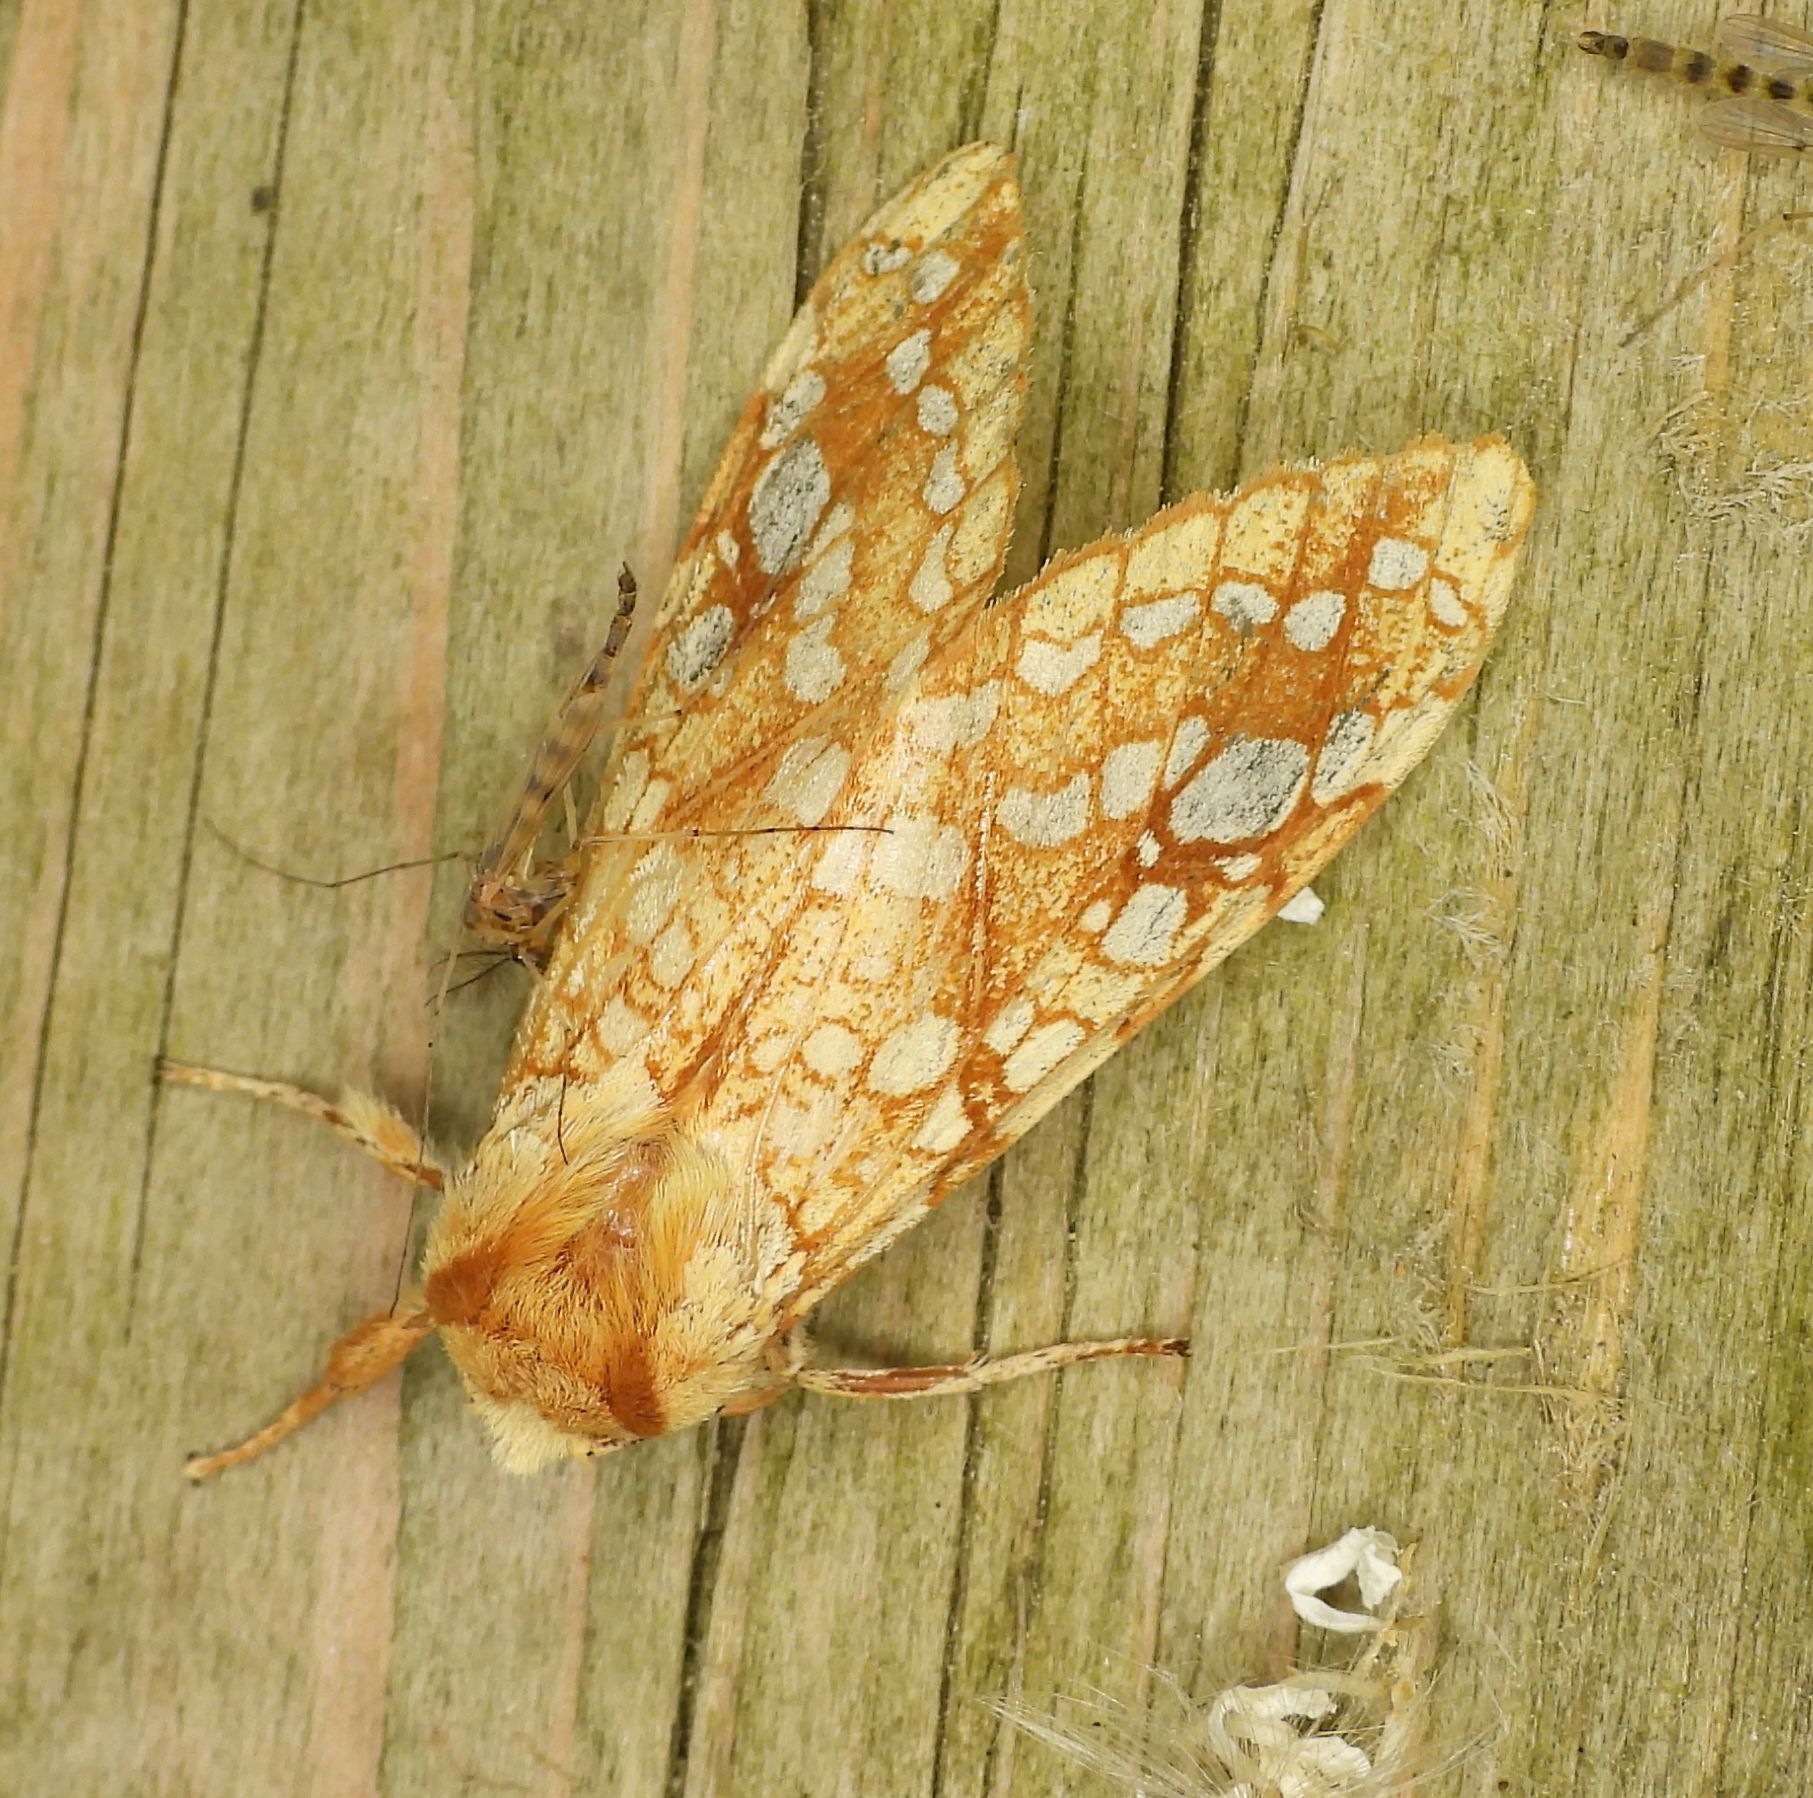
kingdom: Animalia
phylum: Arthropoda
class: Insecta
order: Lepidoptera
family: Erebidae
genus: Lophocampa
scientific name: Lophocampa caryae
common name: Hickory tussock moth
